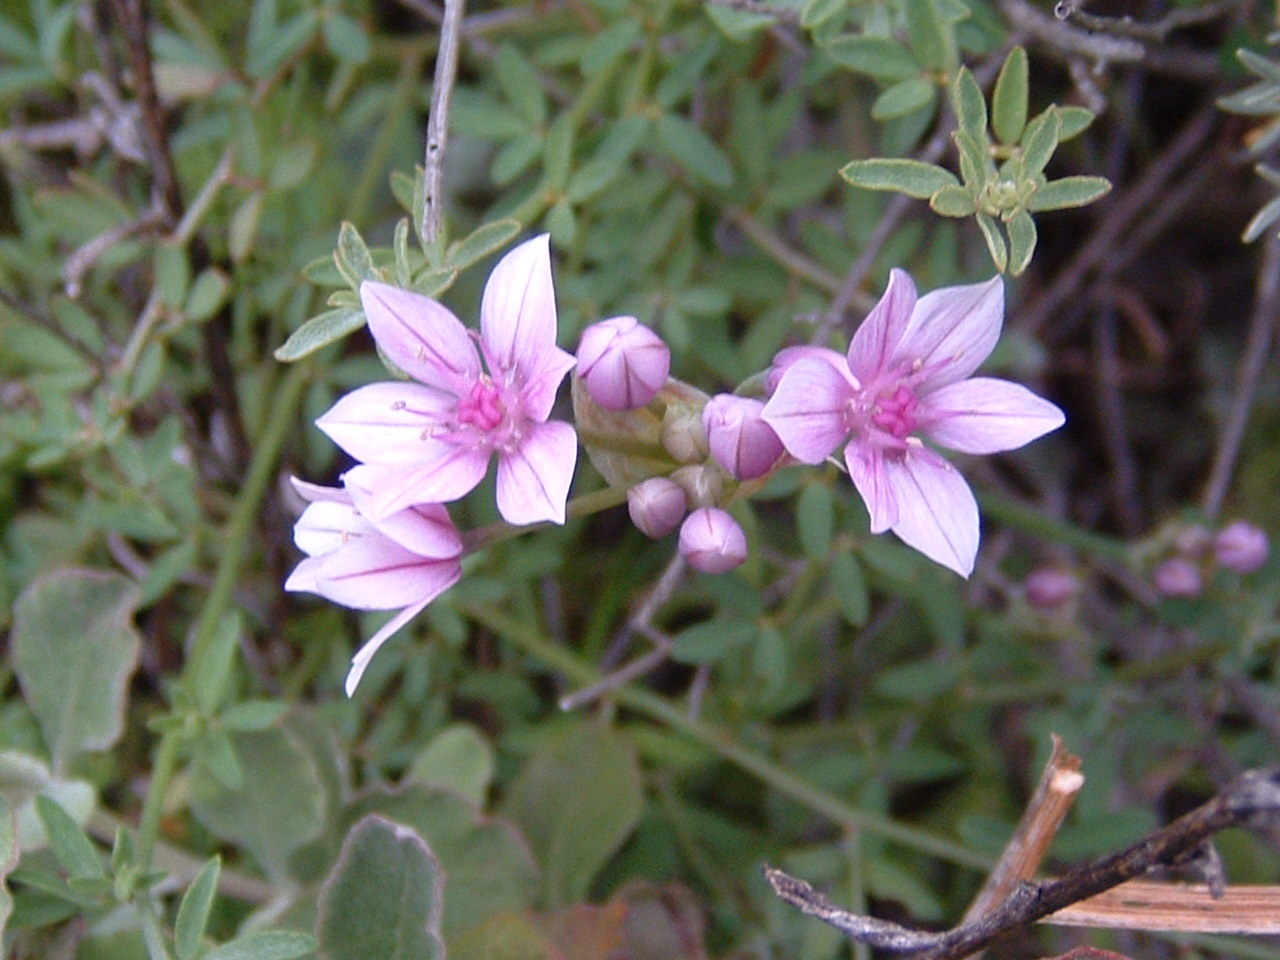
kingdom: Plantae
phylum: Tracheophyta
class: Liliopsida
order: Asparagales
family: Amaryllidaceae
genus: Allium
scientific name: Allium praecox
